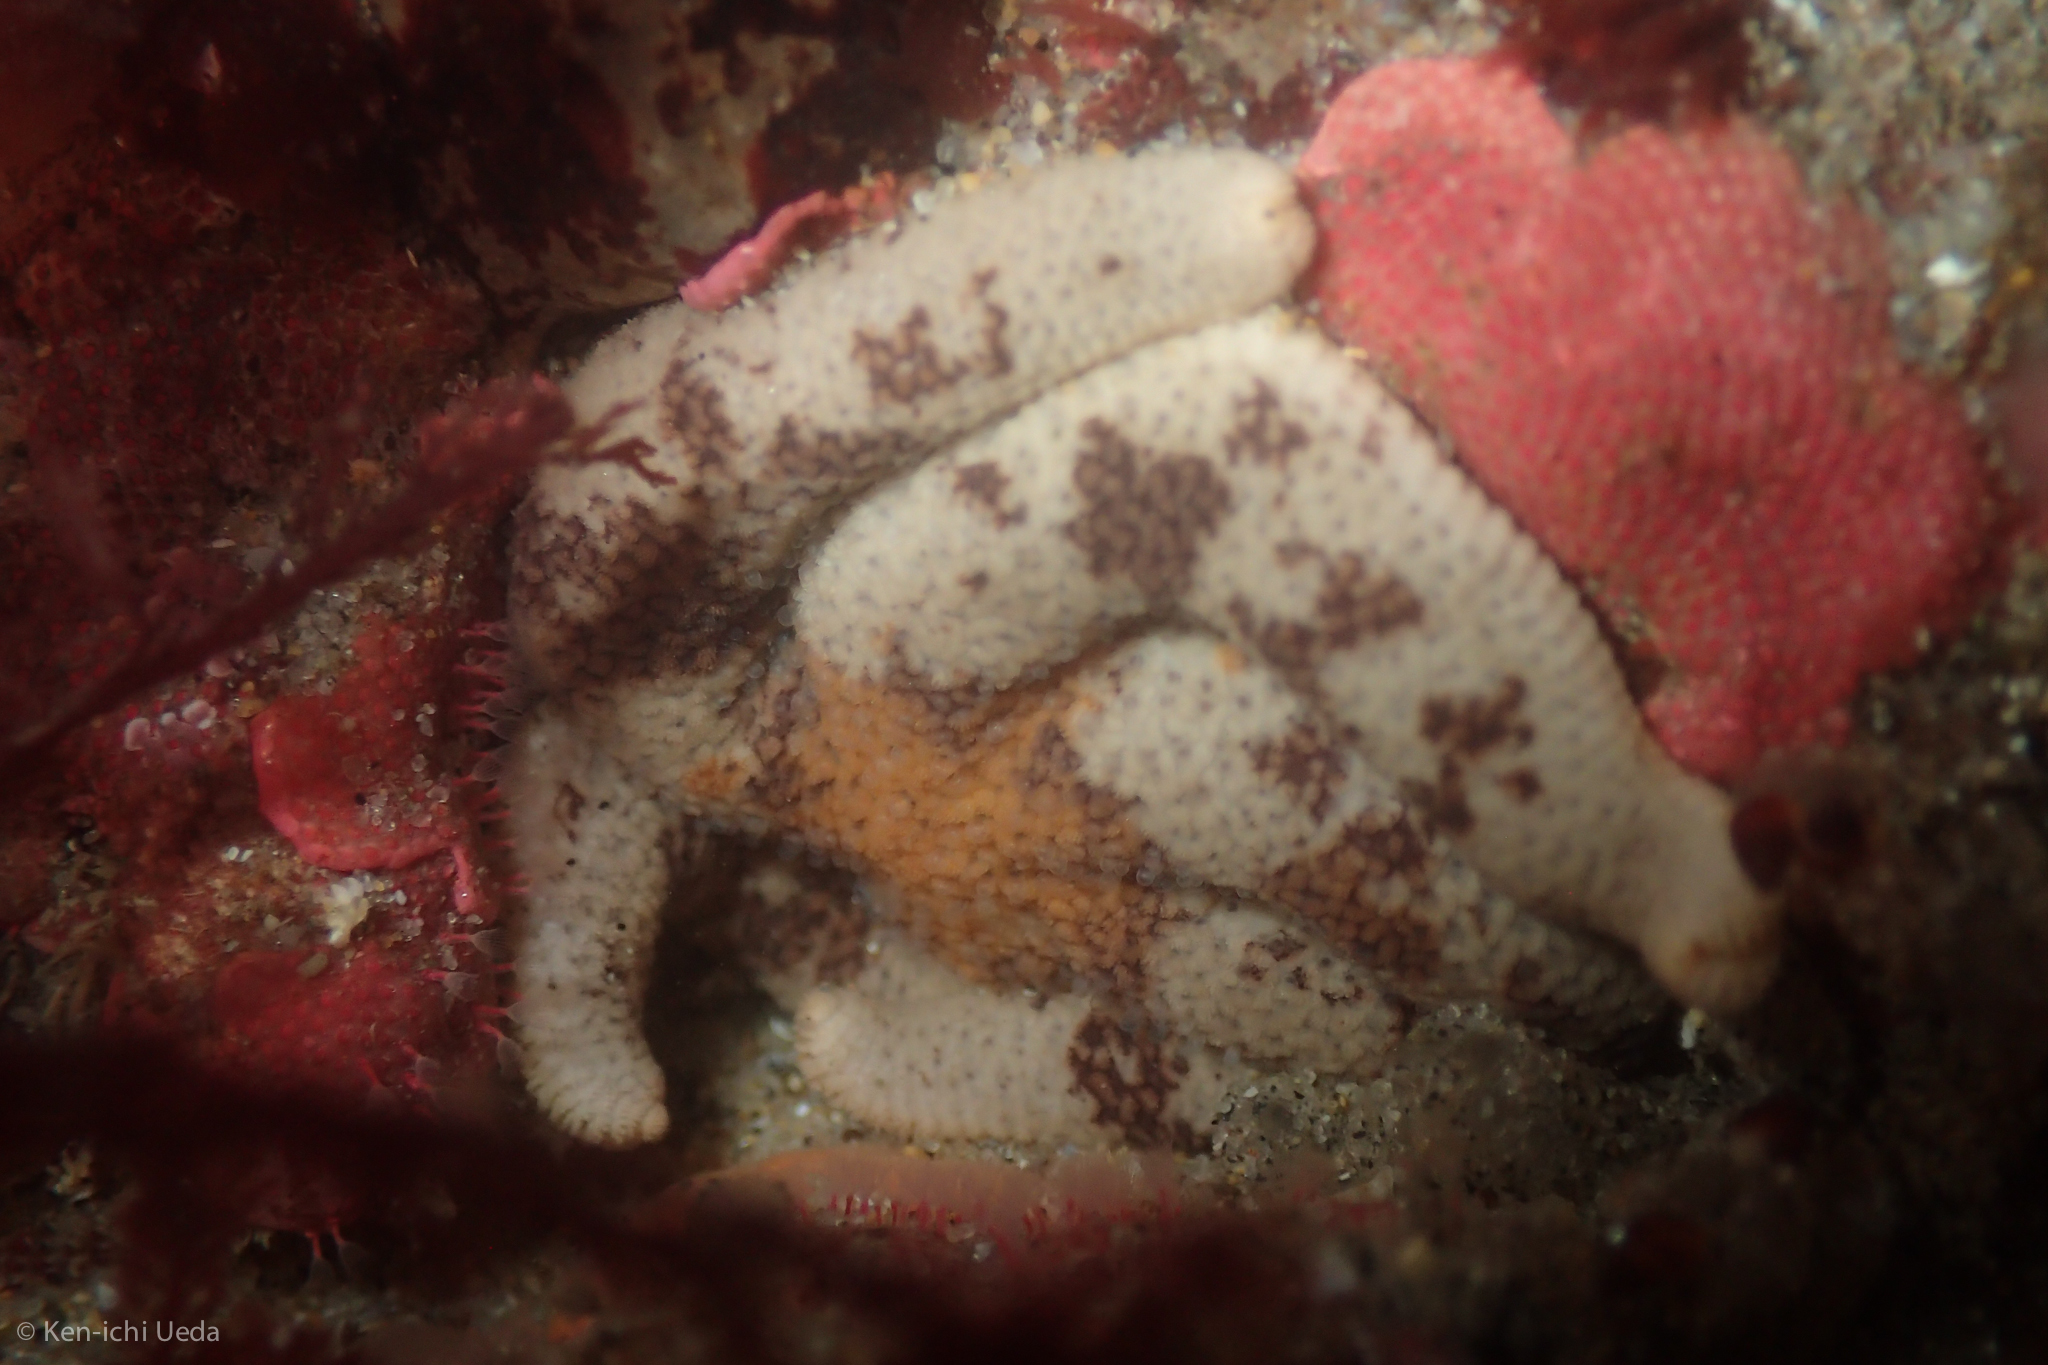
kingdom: Animalia
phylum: Echinodermata
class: Asteroidea
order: Spinulosida
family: Echinasteridae
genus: Henricia
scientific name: Henricia pumila
